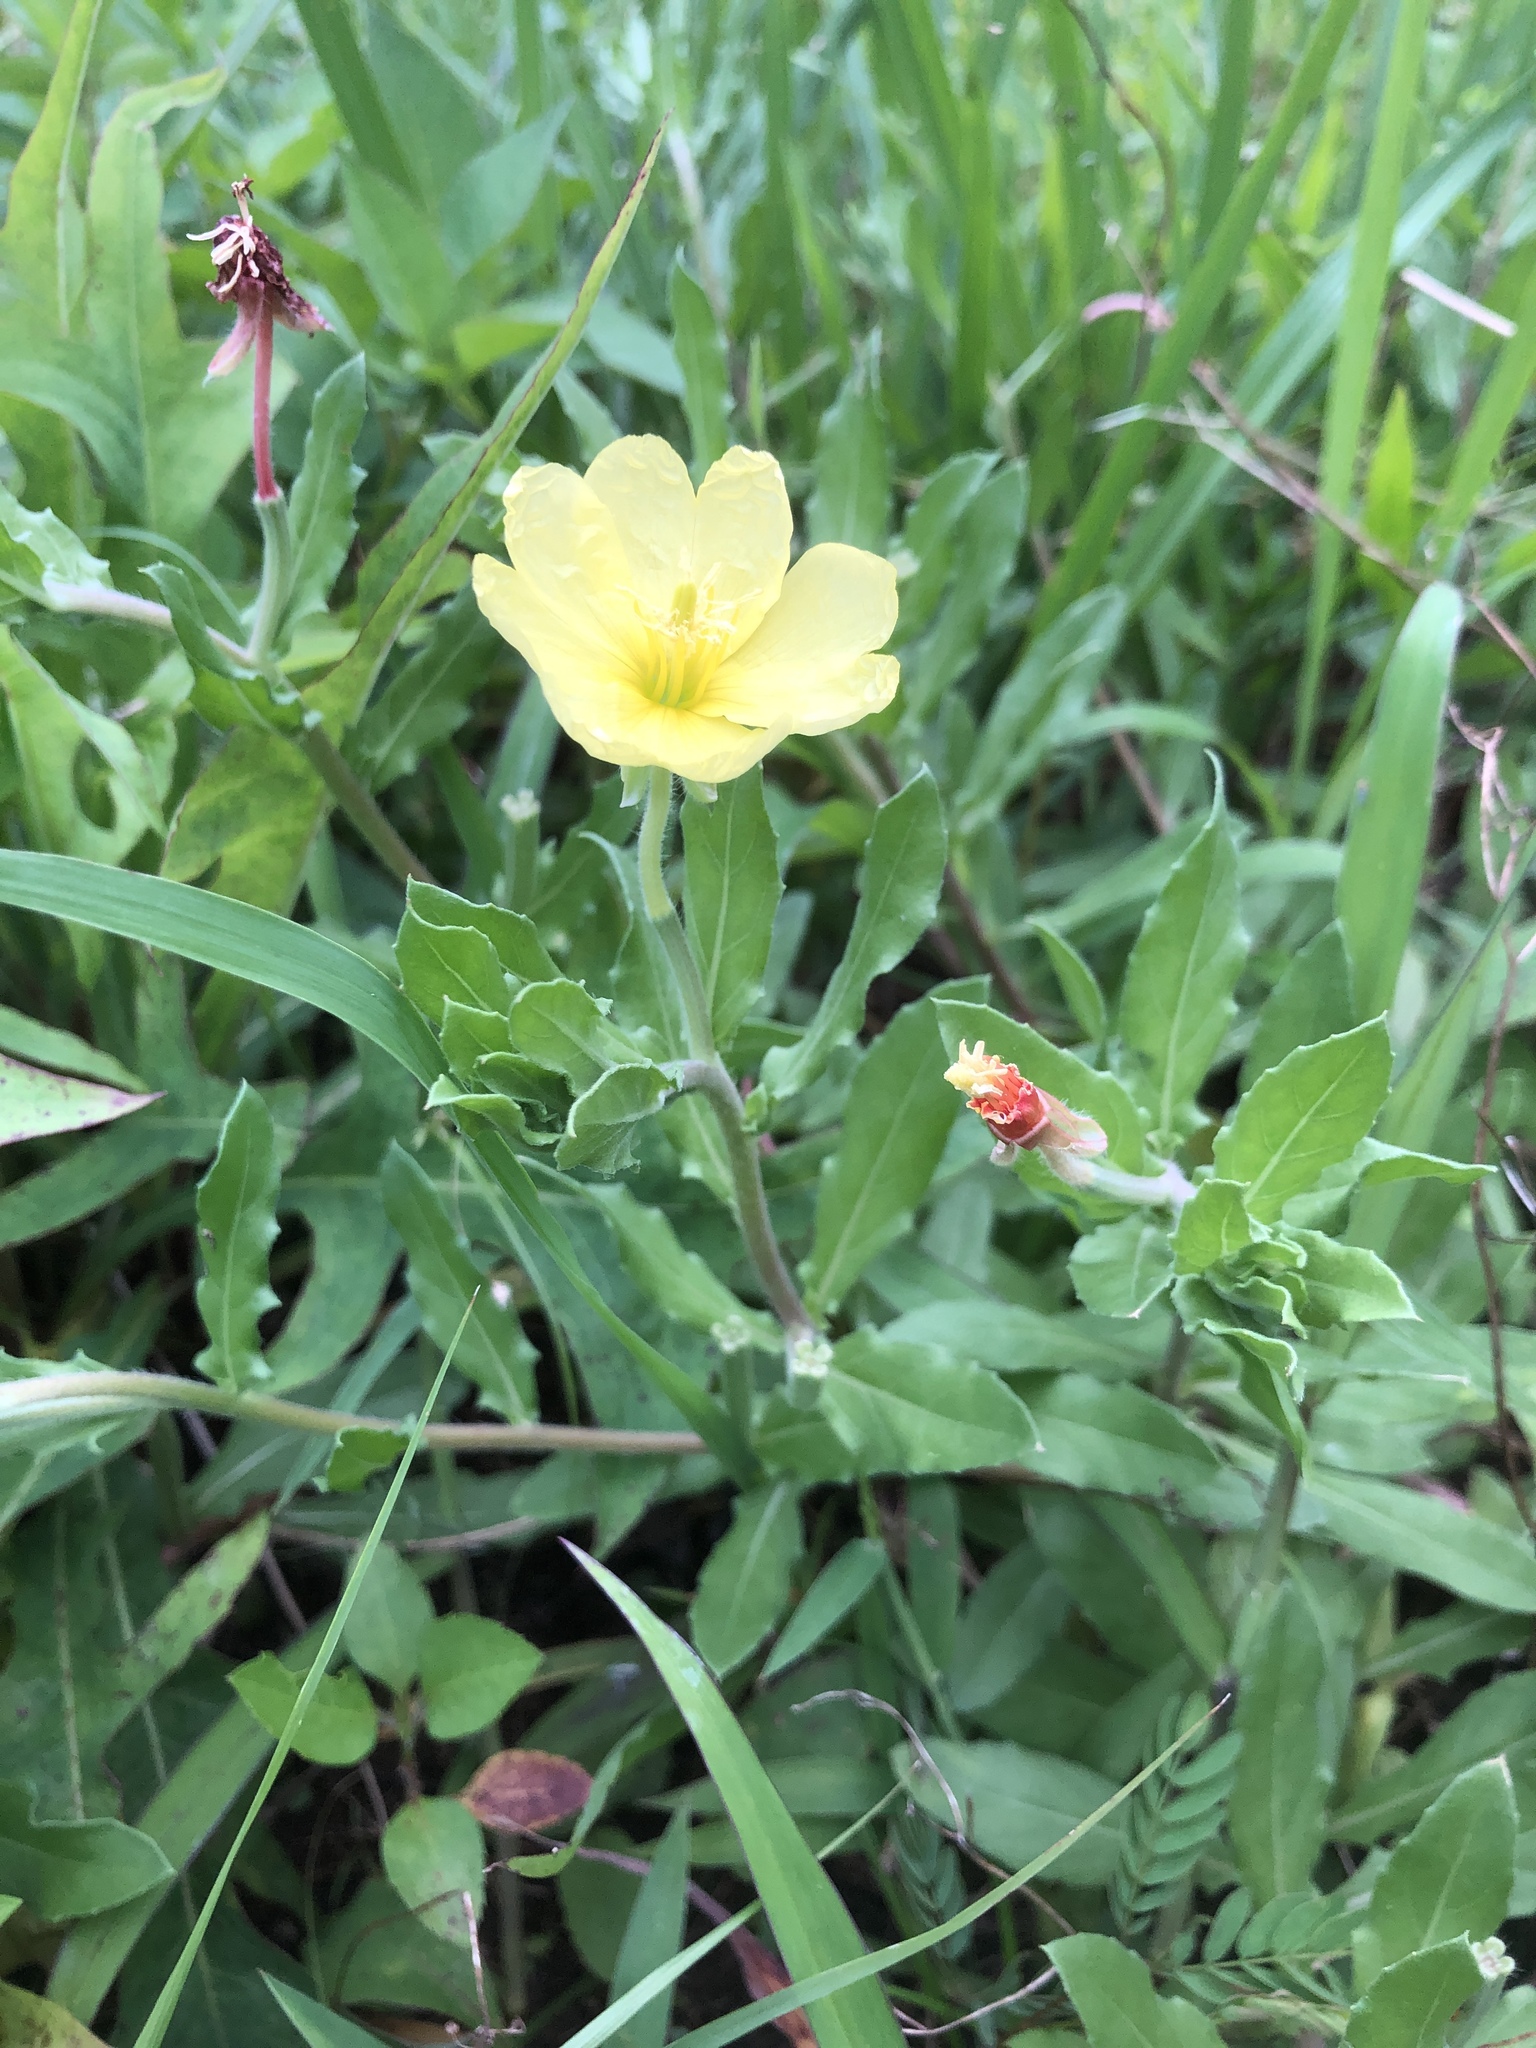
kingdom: Plantae
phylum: Tracheophyta
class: Magnoliopsida
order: Myrtales
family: Onagraceae
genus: Oenothera
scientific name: Oenothera laciniata
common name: Cut-leaved evening-primrose
